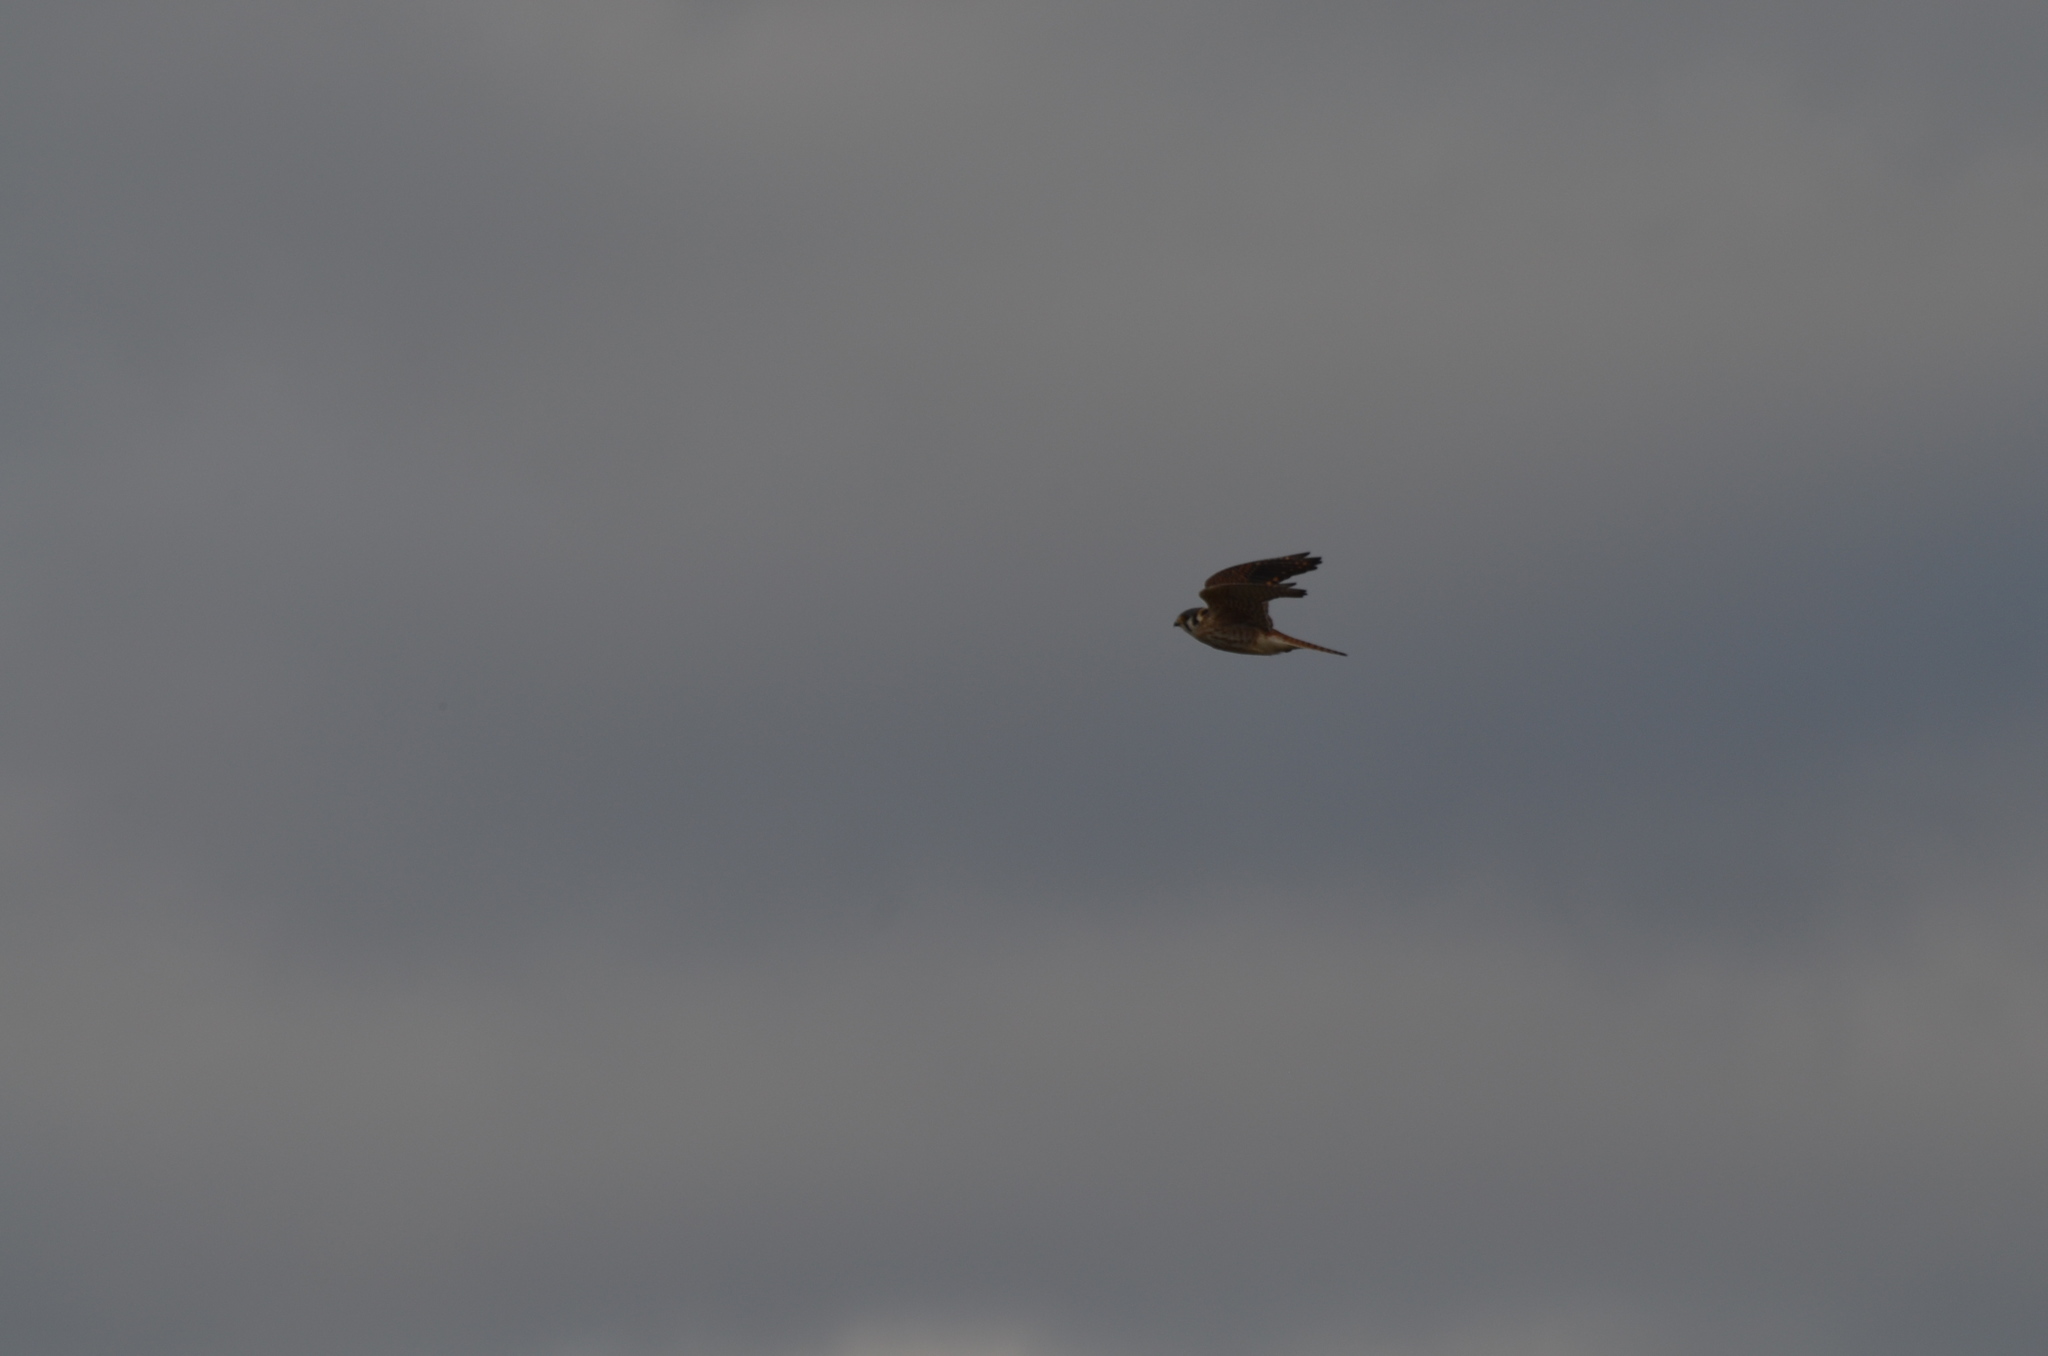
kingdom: Animalia
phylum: Chordata
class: Aves
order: Falconiformes
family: Falconidae
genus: Falco
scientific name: Falco sparverius
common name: American kestrel
